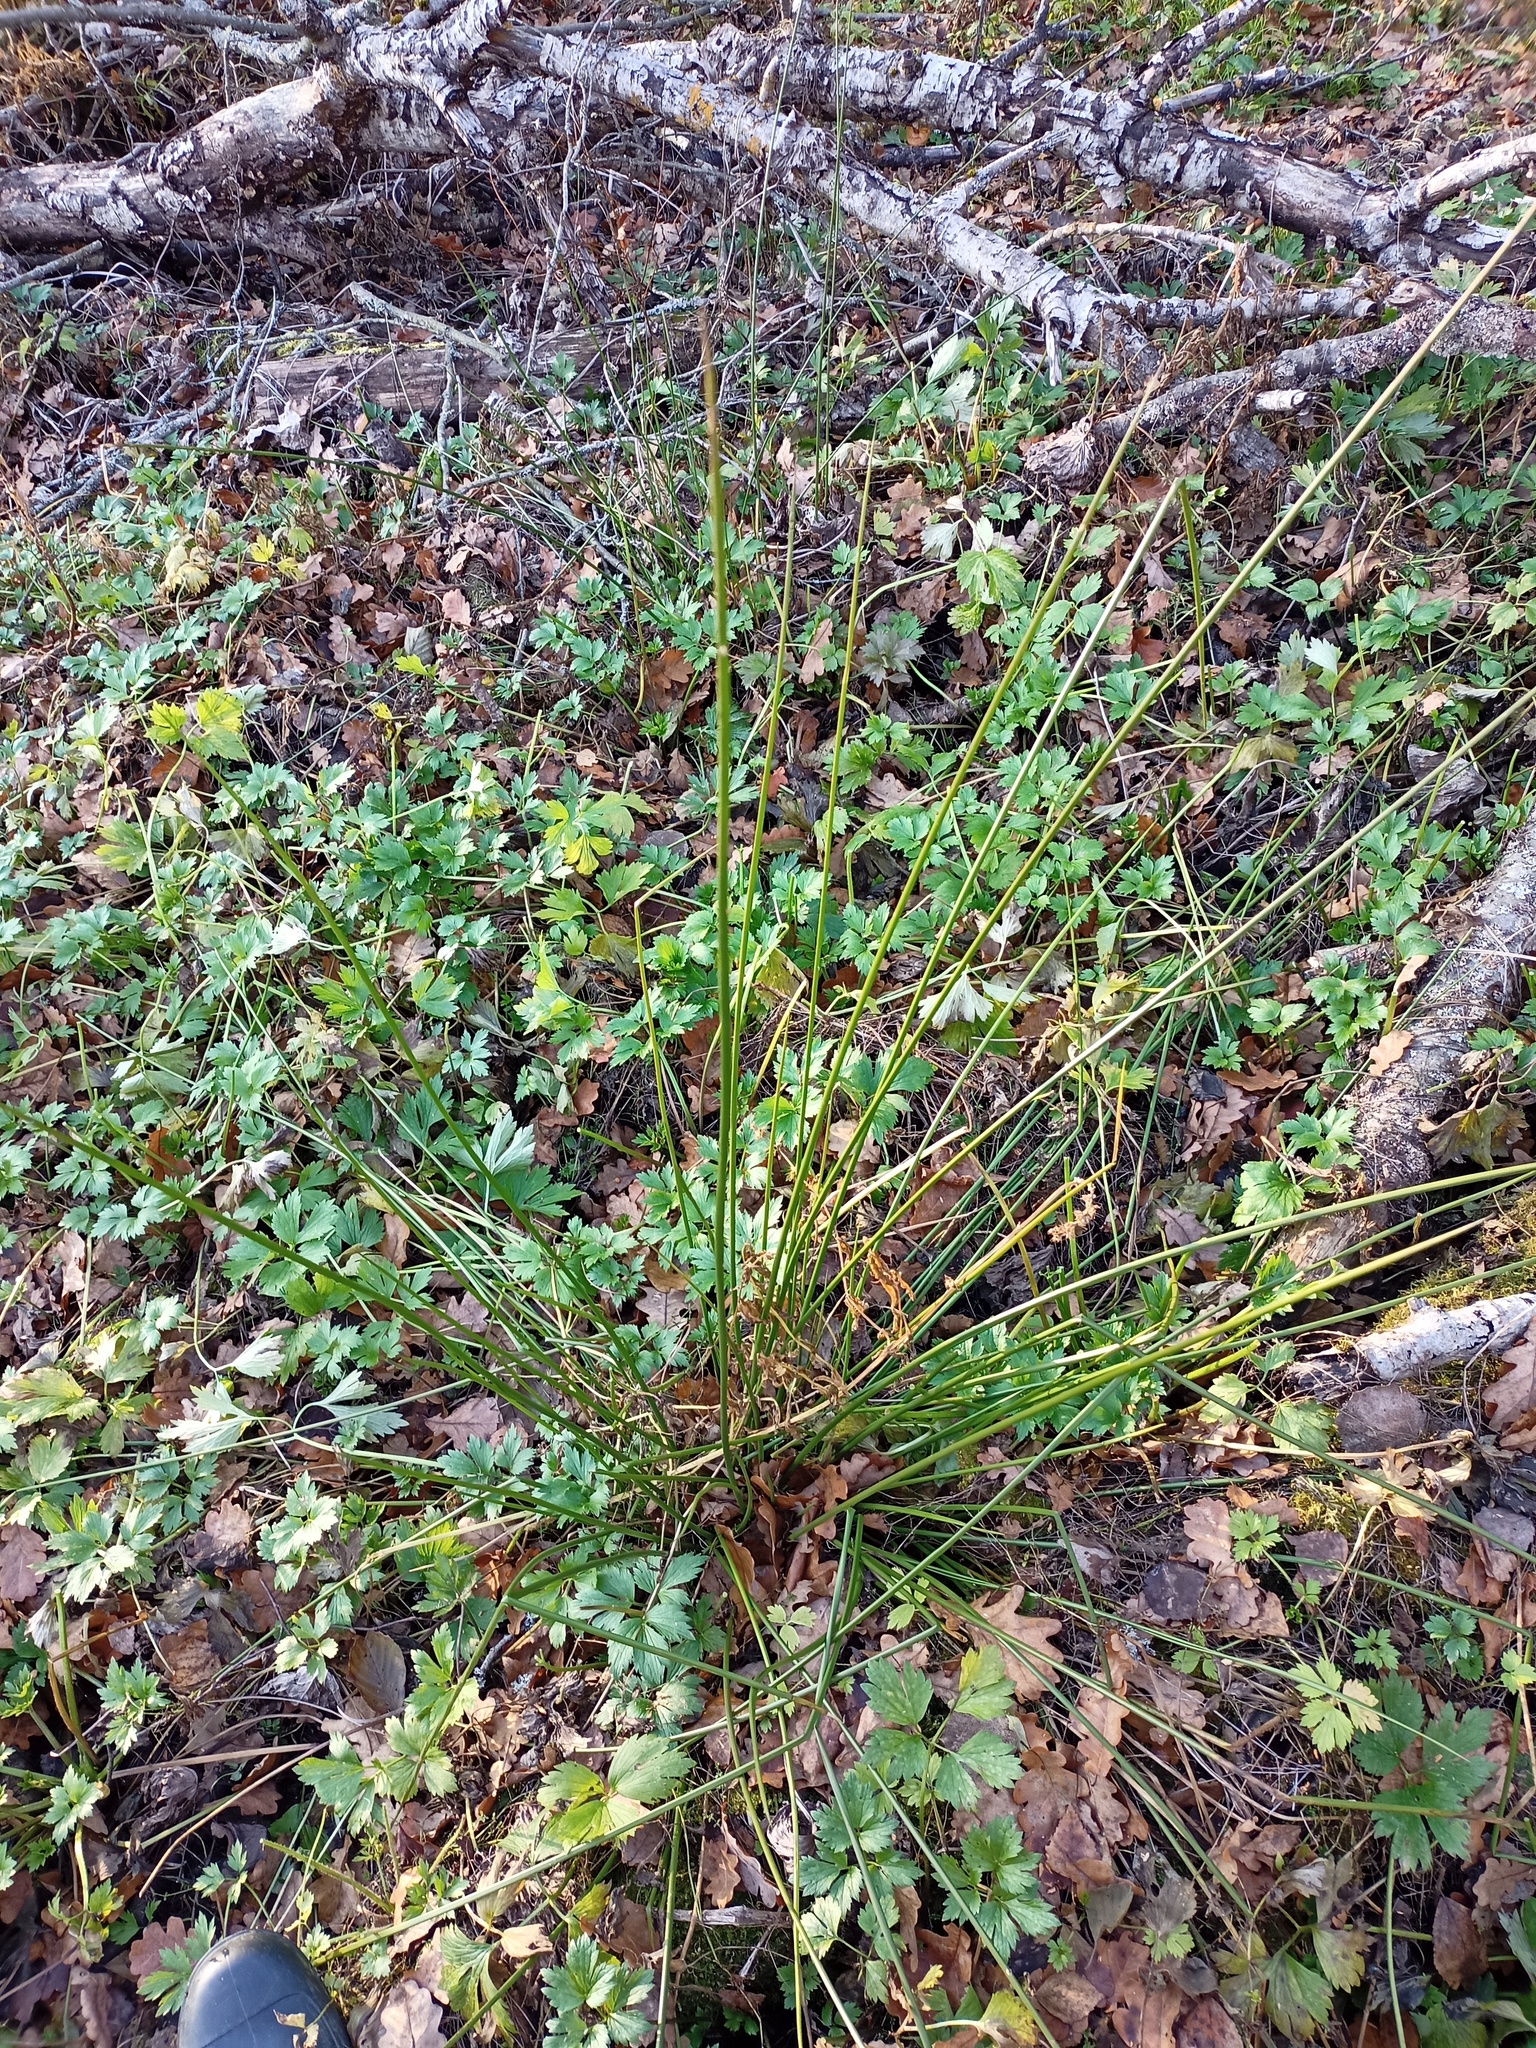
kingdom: Plantae
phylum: Tracheophyta
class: Liliopsida
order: Poales
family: Juncaceae
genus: Juncus
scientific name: Juncus effusus
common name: Soft rush
